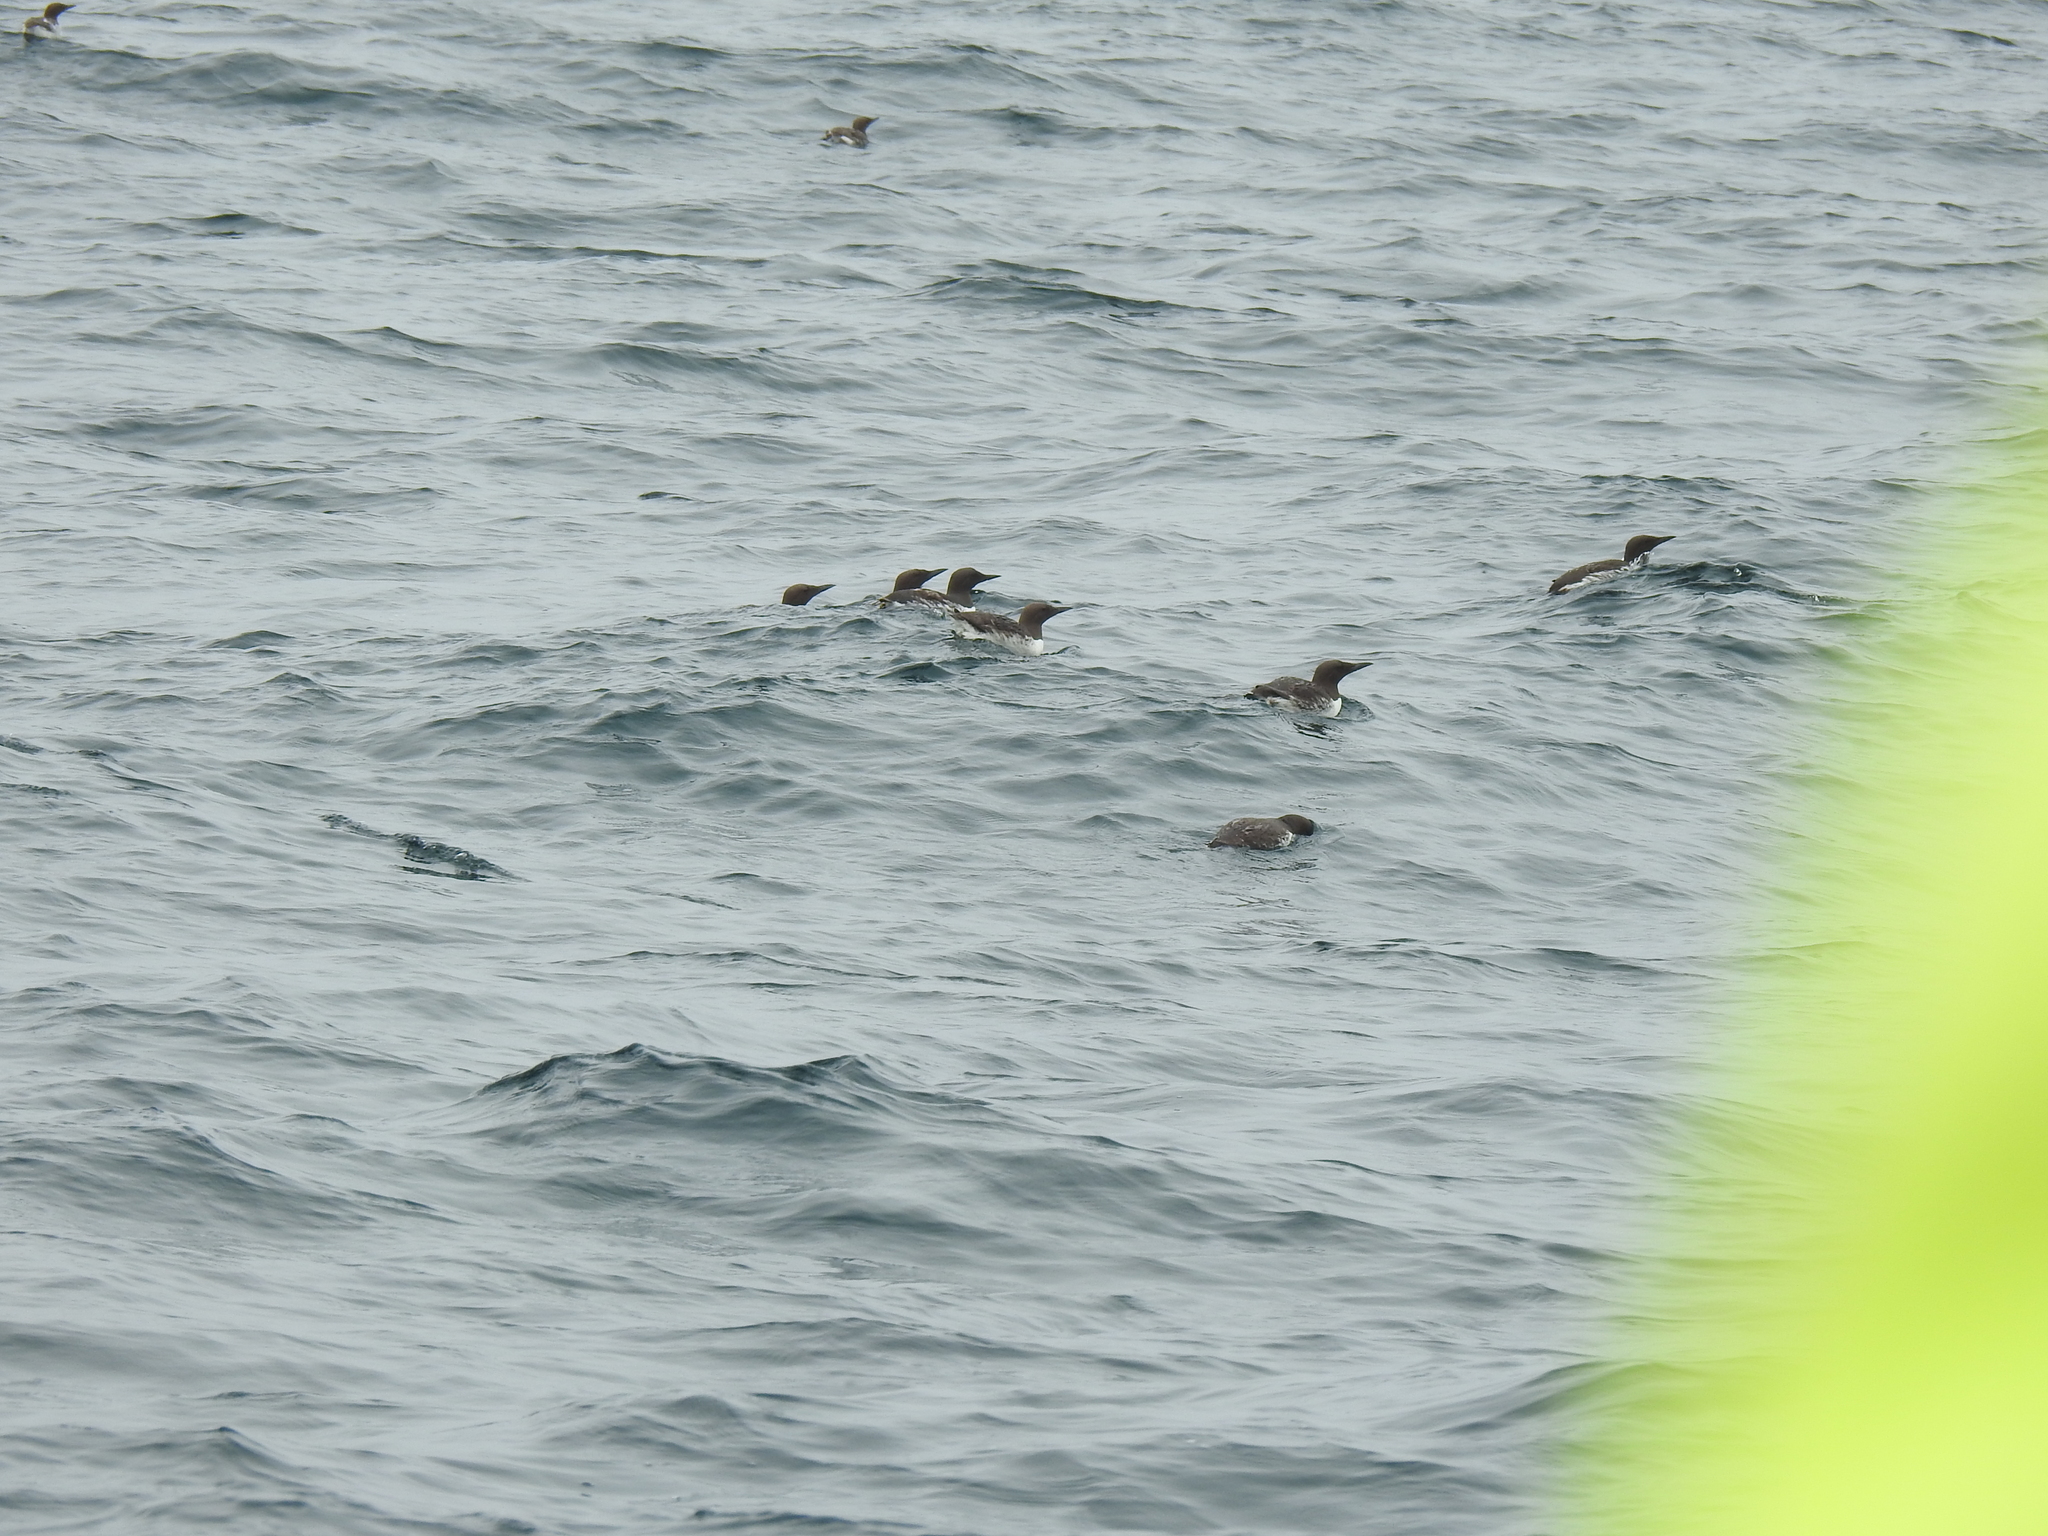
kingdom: Animalia
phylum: Chordata
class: Aves
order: Charadriiformes
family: Alcidae
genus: Uria
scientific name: Uria aalge
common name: Common murre
